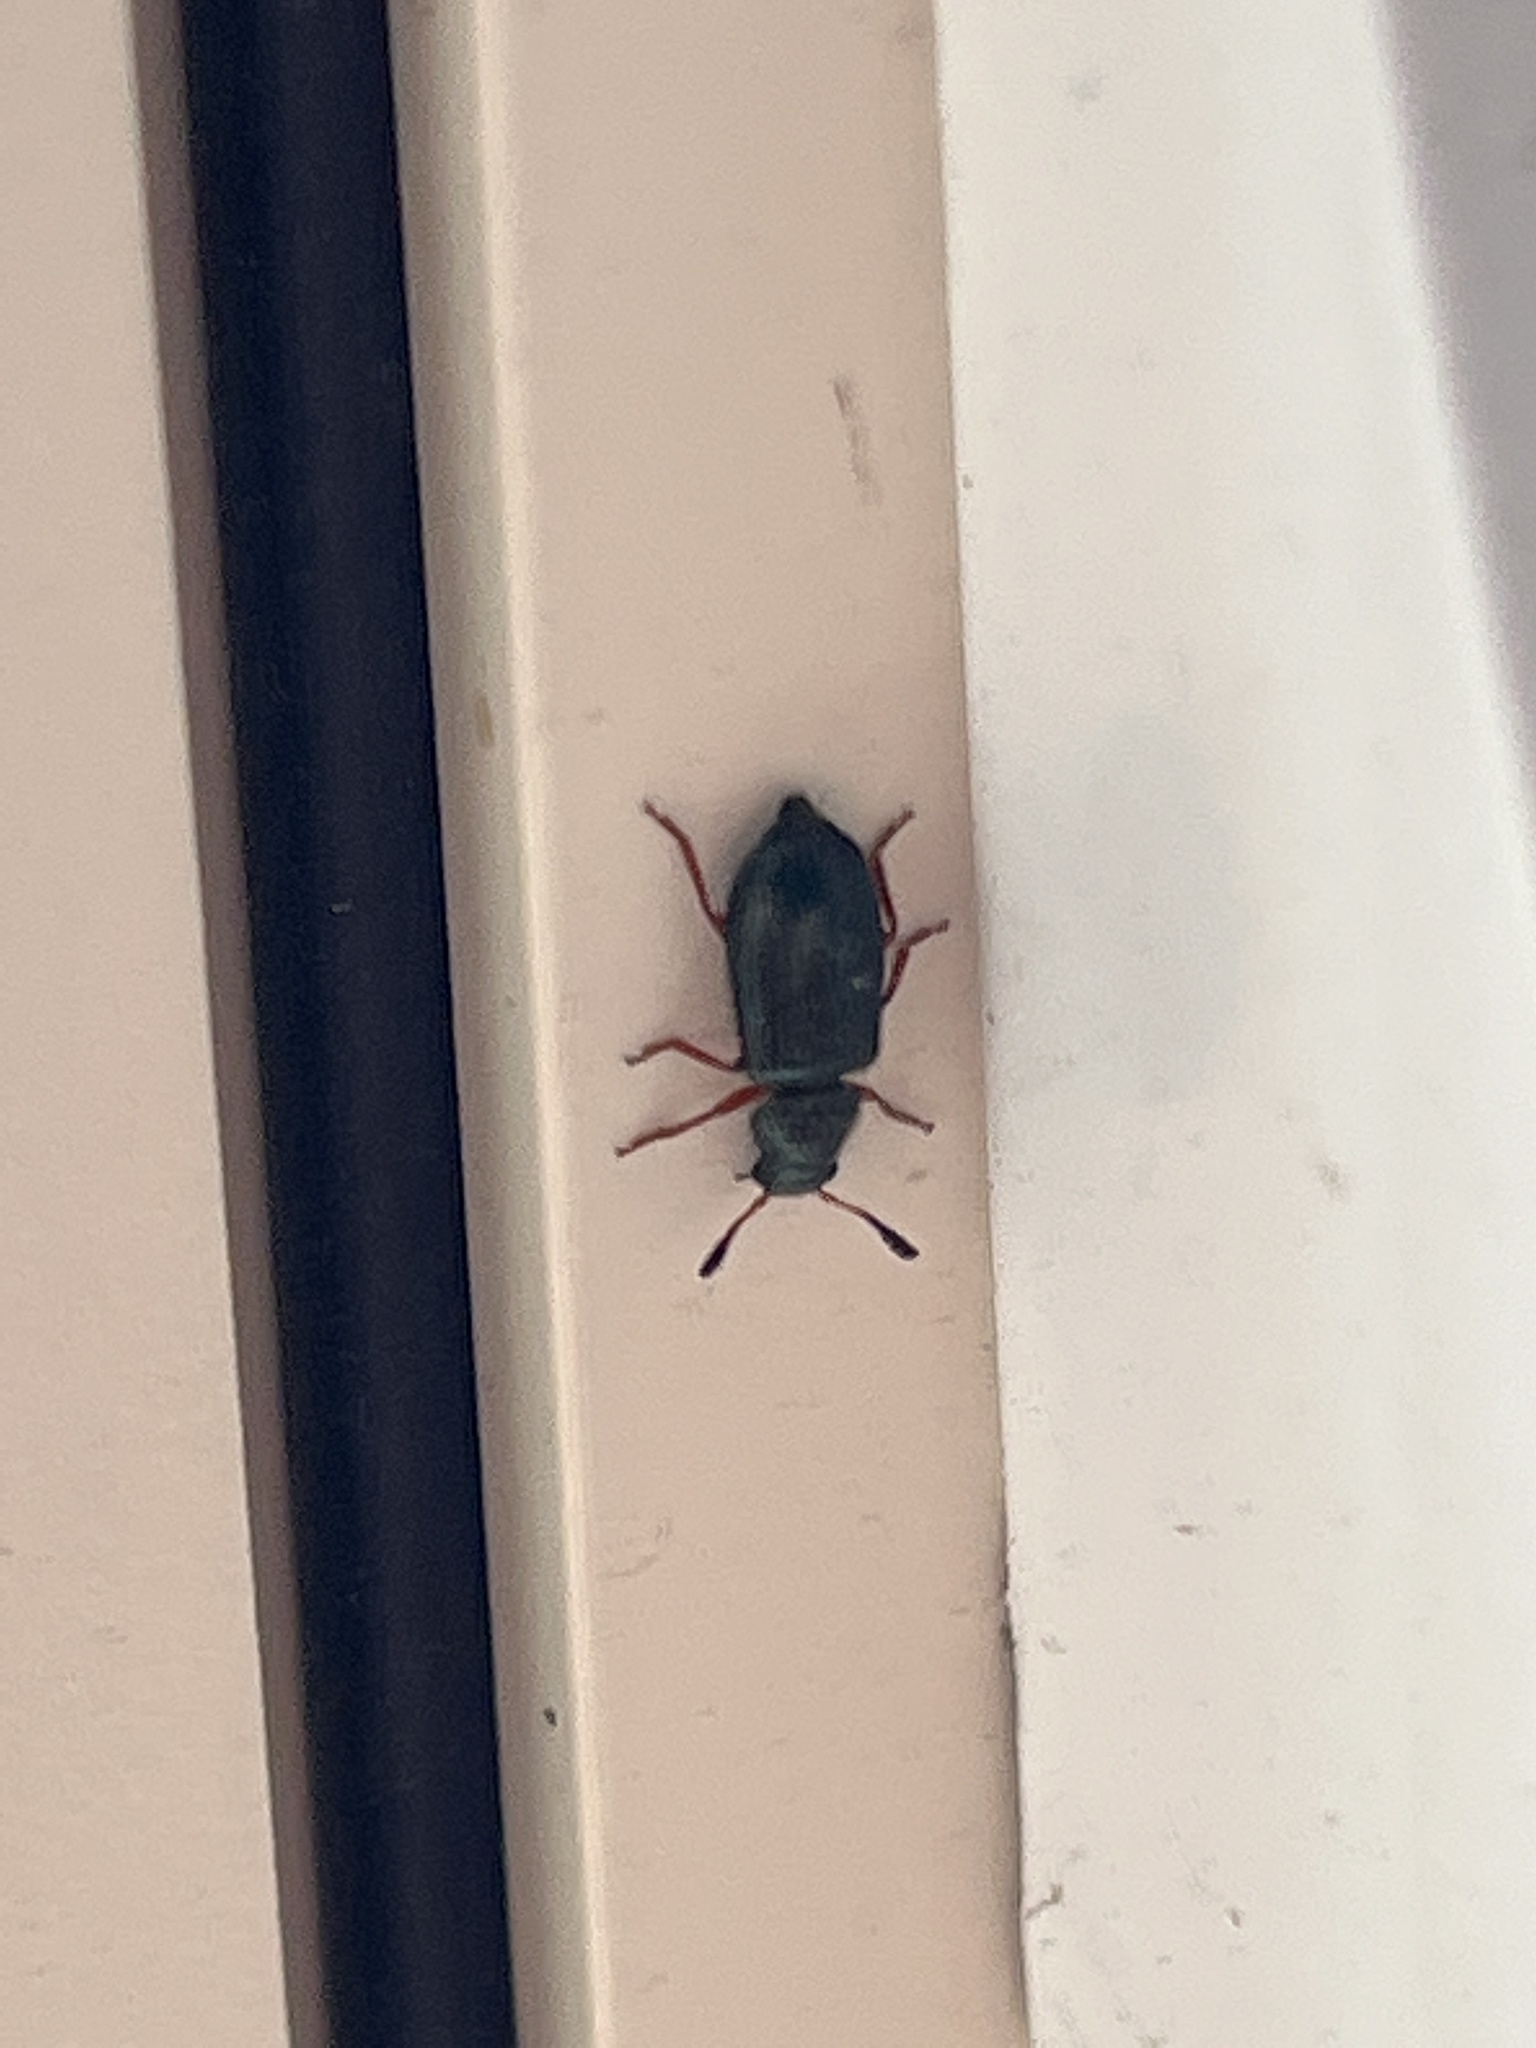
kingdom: Animalia
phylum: Arthropoda
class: Insecta
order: Coleoptera
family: Cleridae
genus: Necrobia
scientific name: Necrobia rufipes
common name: Red-legged ham beetle
